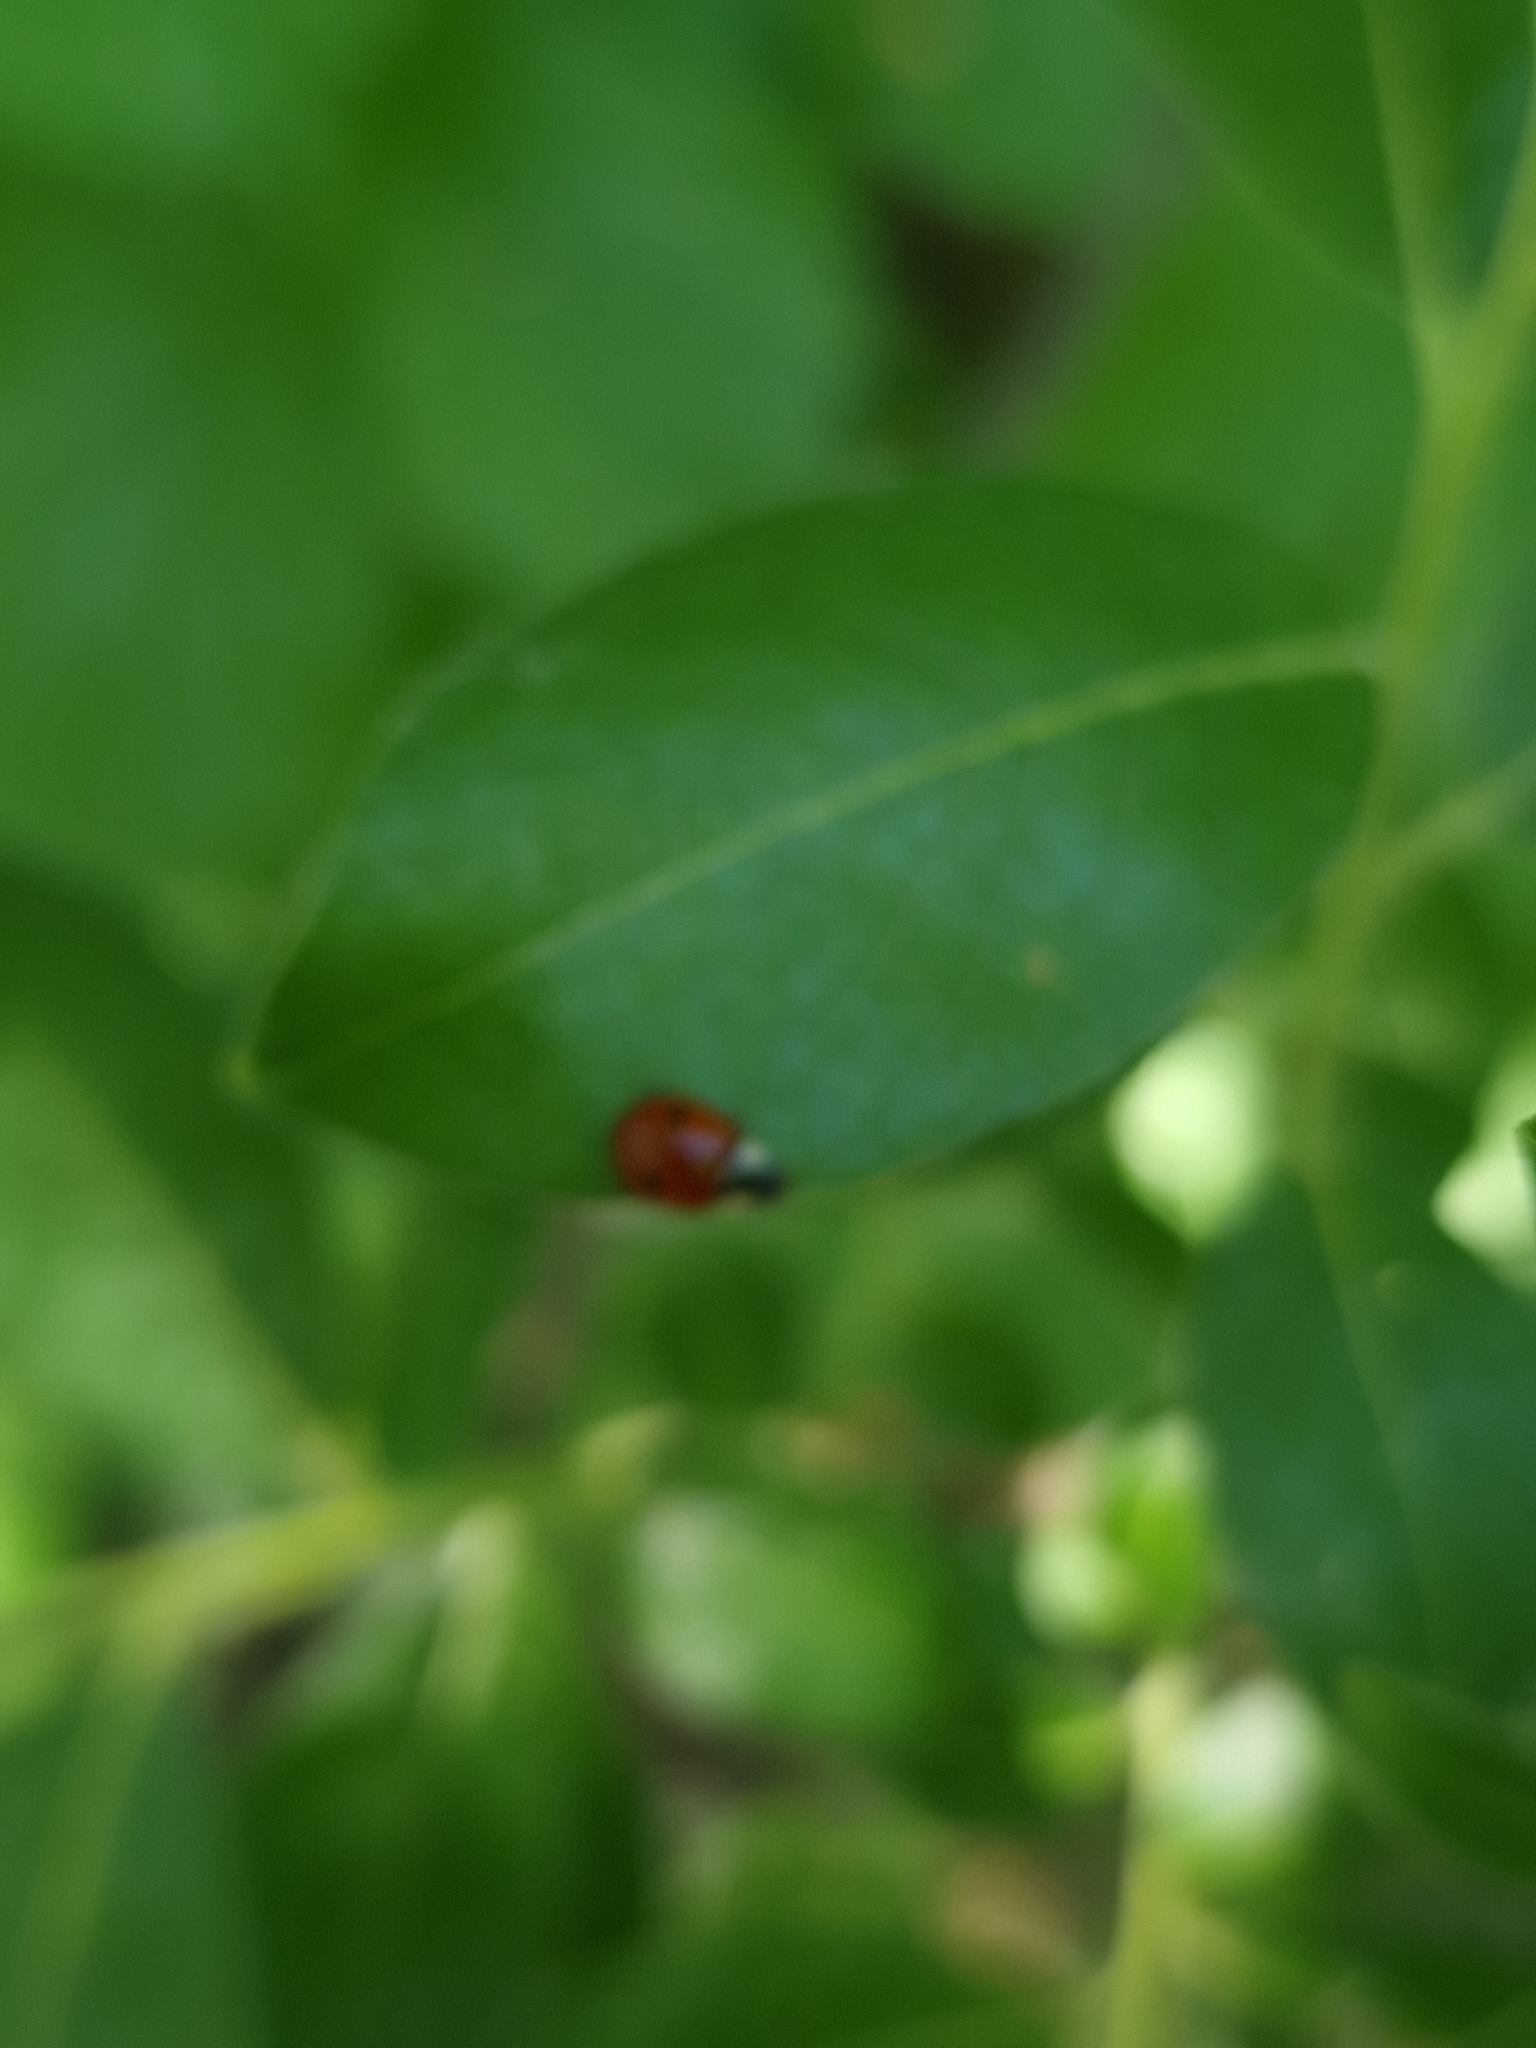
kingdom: Animalia
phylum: Arthropoda
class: Insecta
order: Coleoptera
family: Coccinellidae
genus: Adalia
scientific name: Adalia bipunctata
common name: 2-spot ladybird
